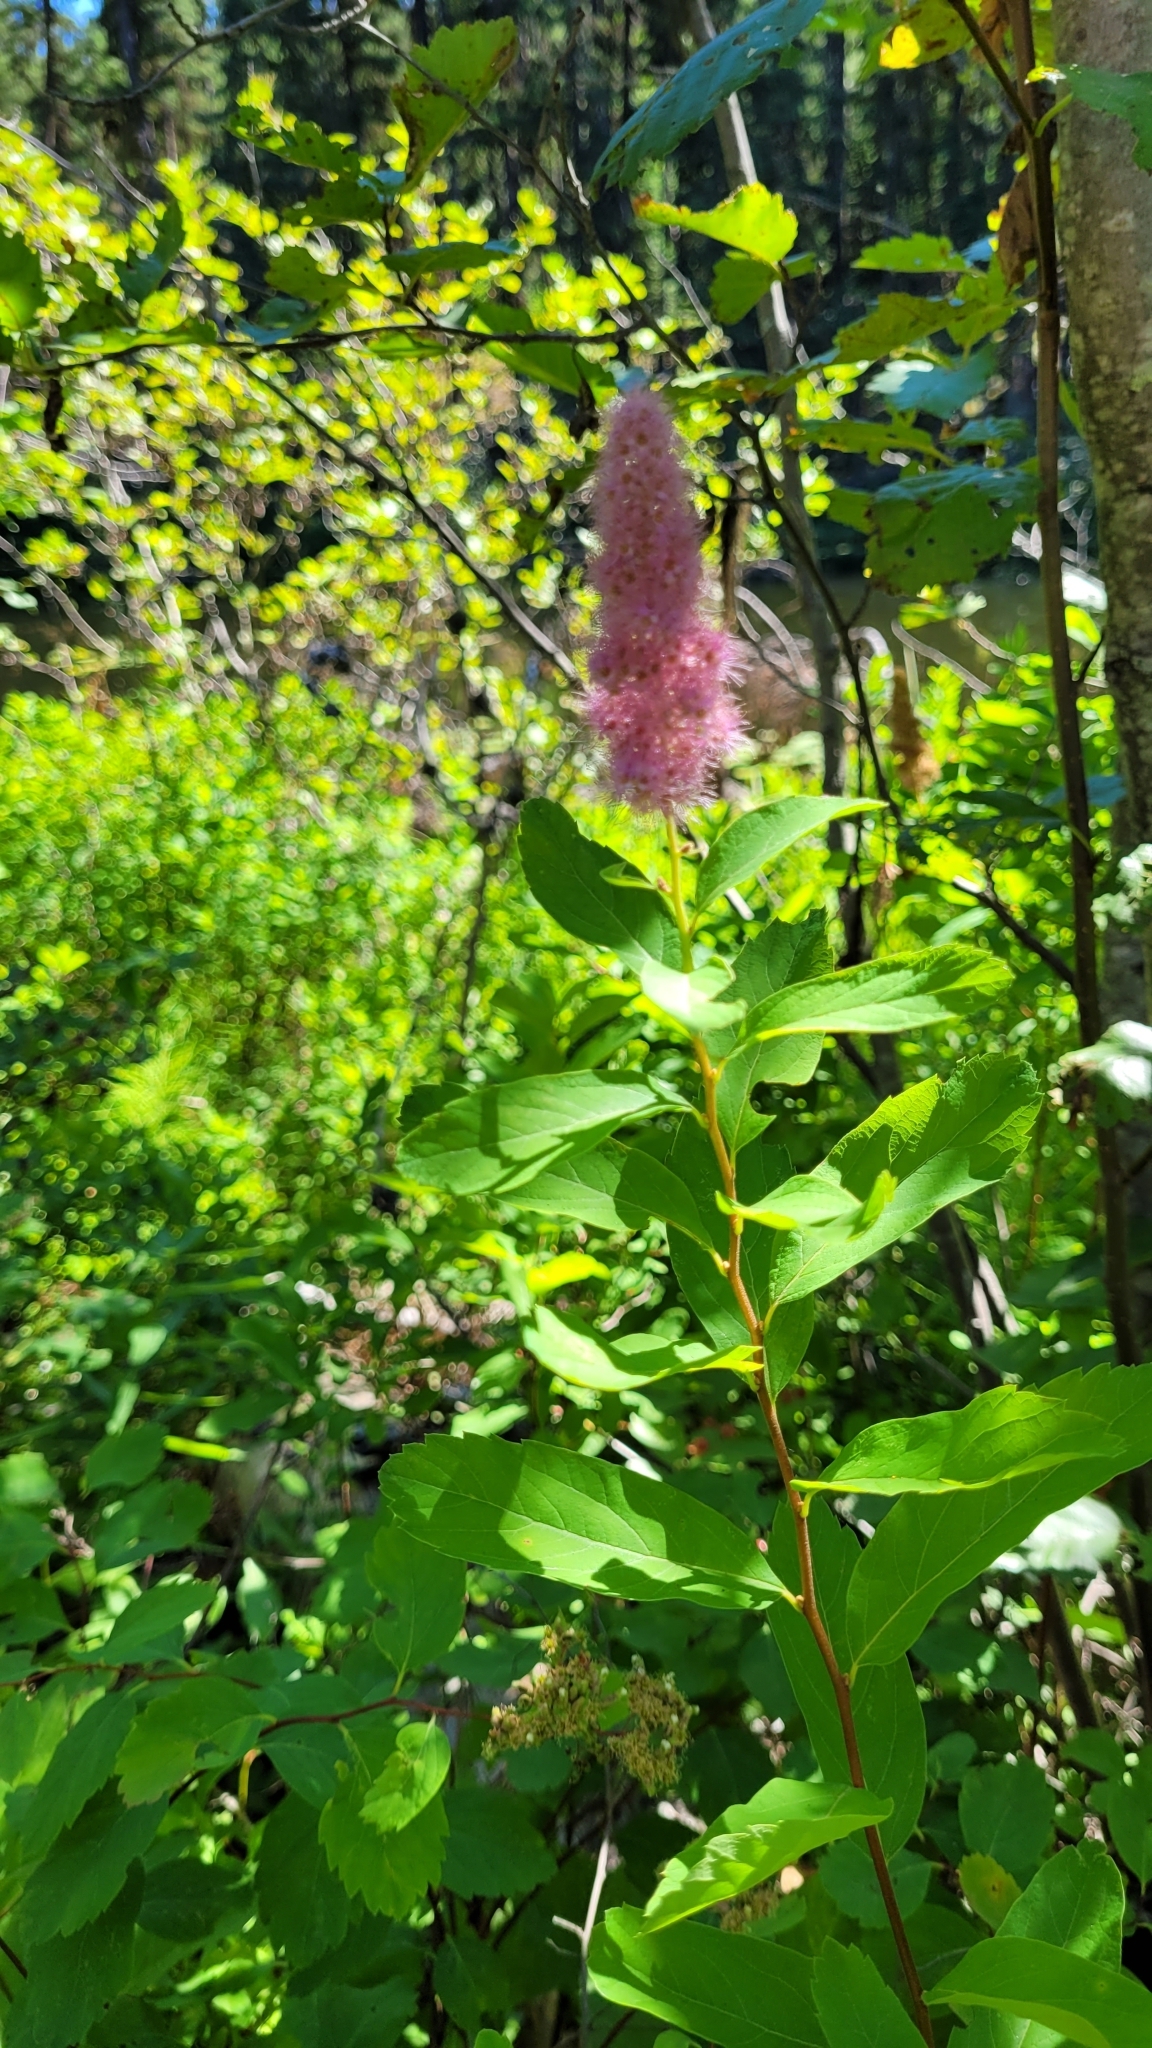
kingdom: Plantae
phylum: Tracheophyta
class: Magnoliopsida
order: Rosales
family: Rosaceae
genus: Spiraea
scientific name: Spiraea douglasii
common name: Steeplebush
